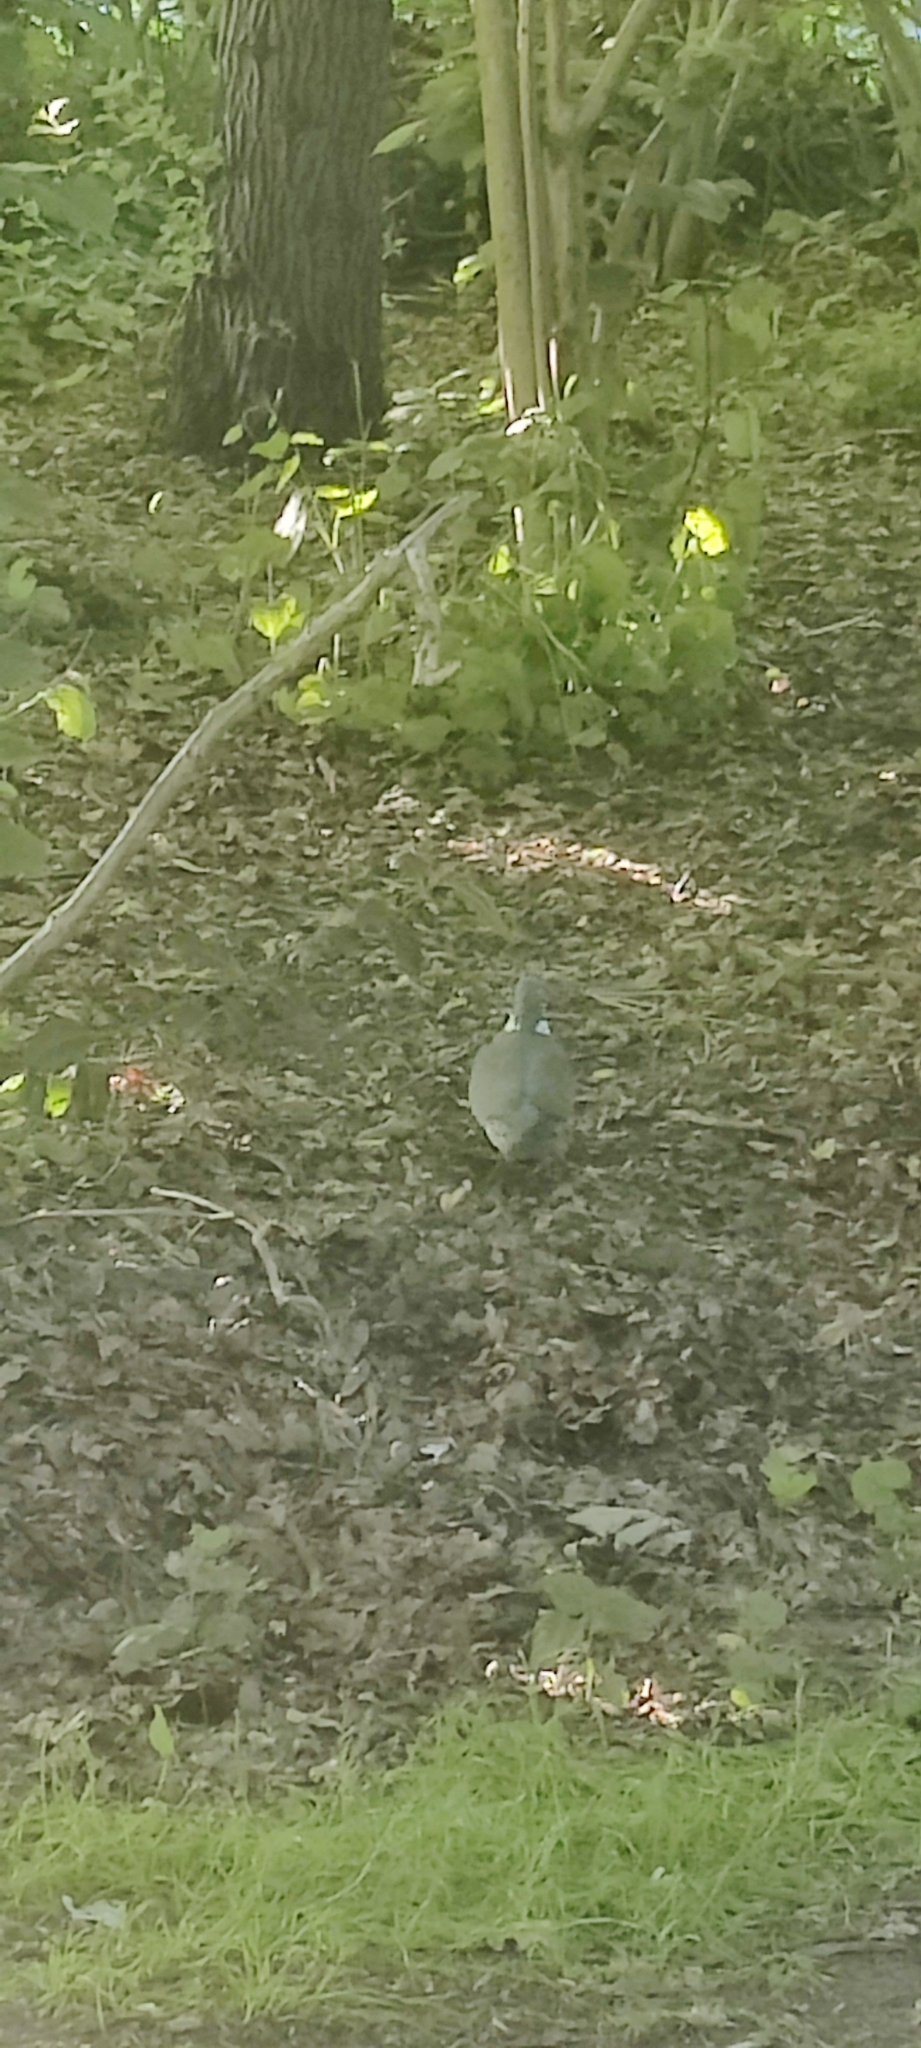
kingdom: Animalia
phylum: Chordata
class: Aves
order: Columbiformes
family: Columbidae
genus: Columba
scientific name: Columba palumbus
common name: Common wood pigeon
